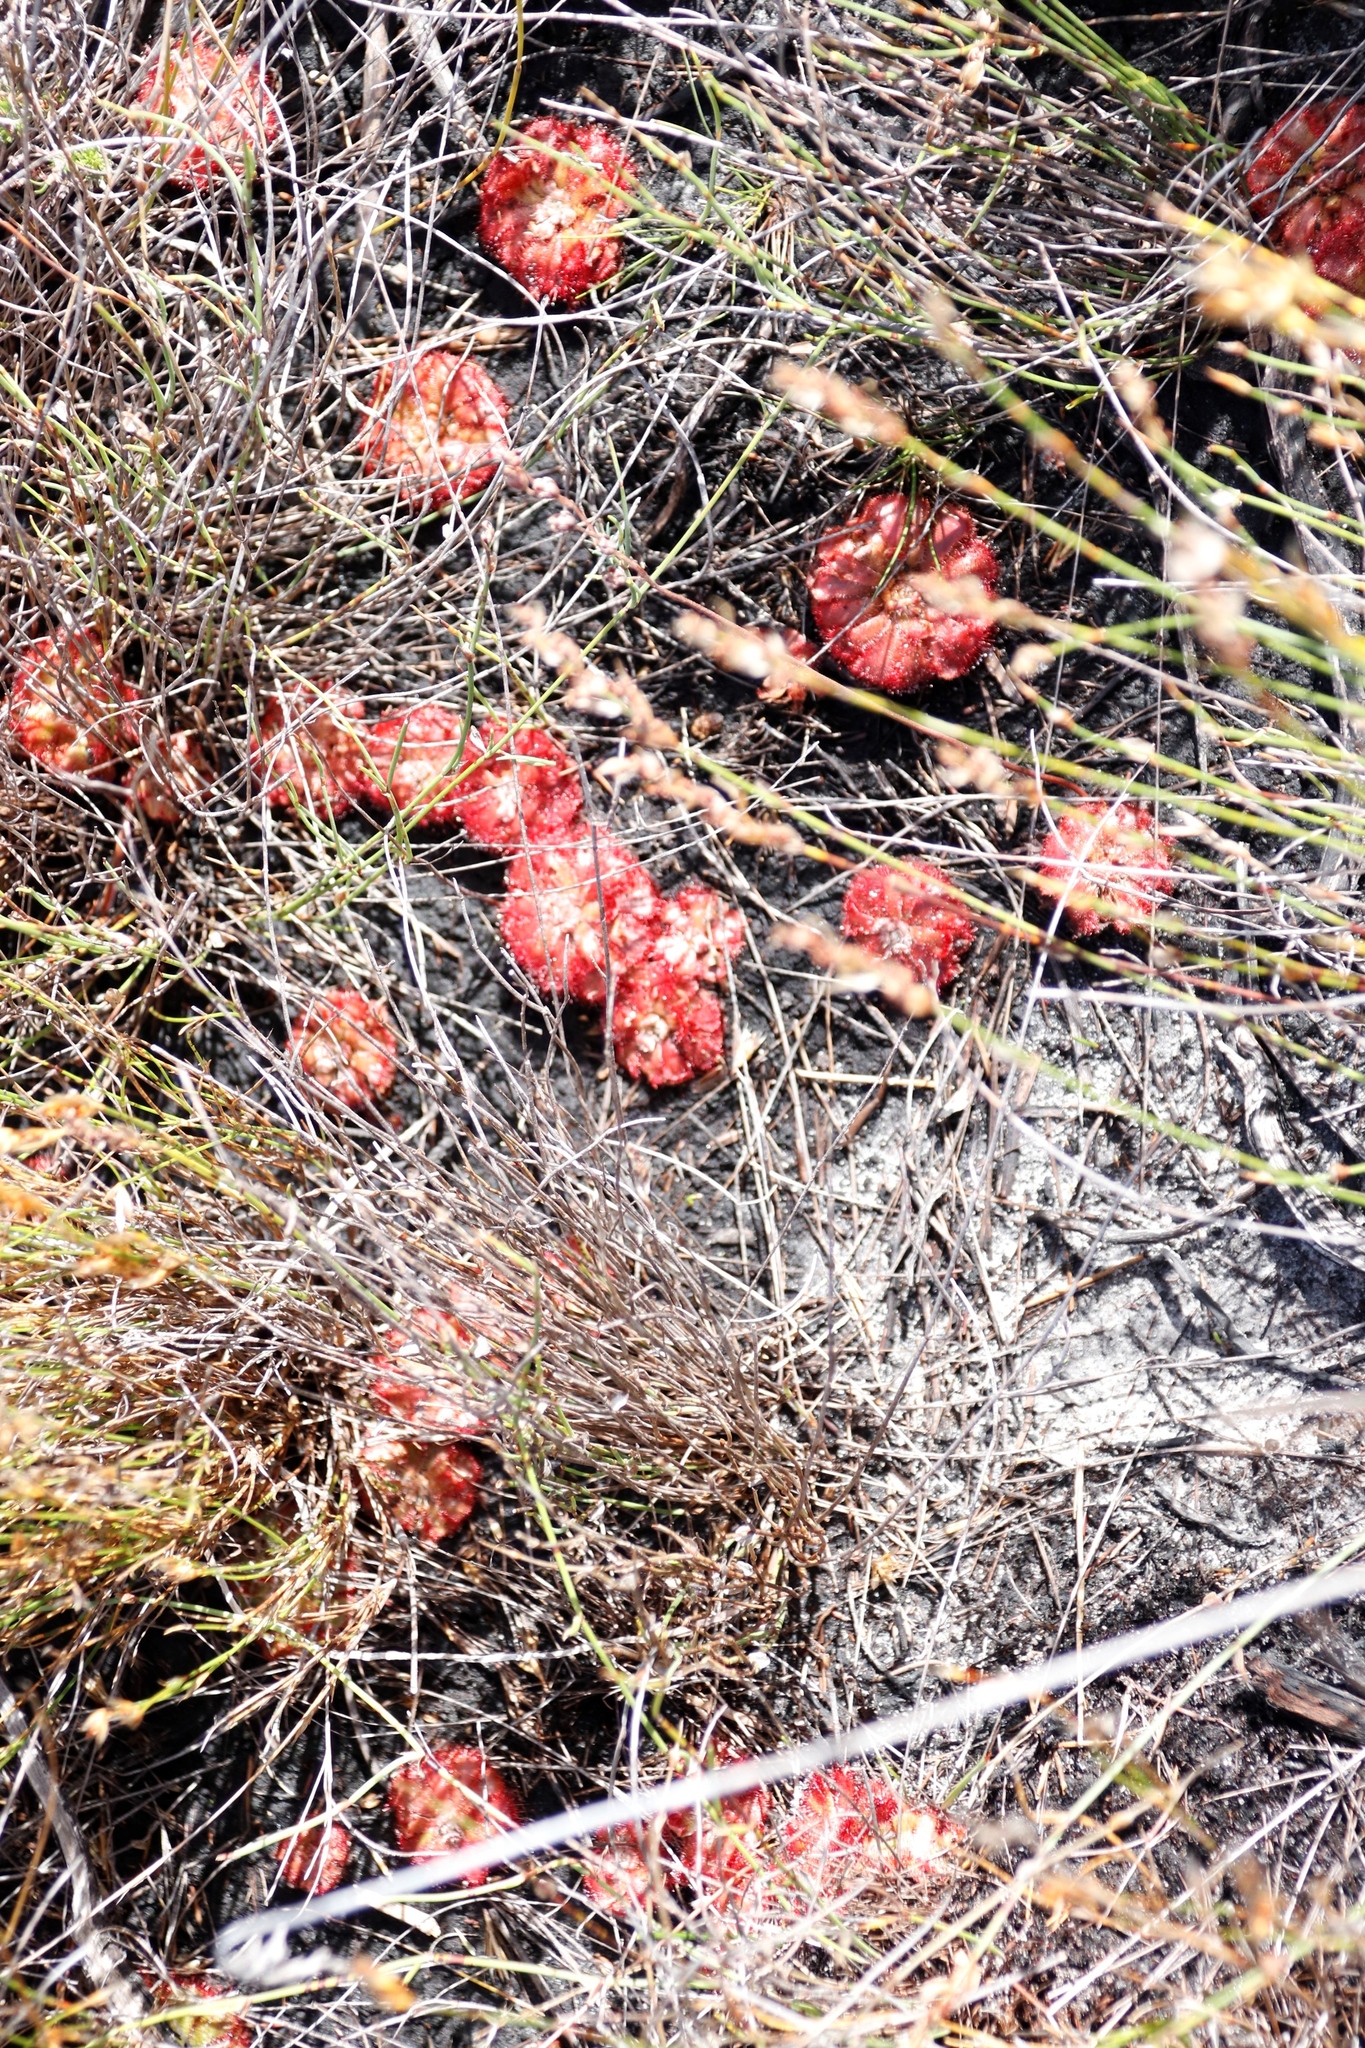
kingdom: Plantae
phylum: Tracheophyta
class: Magnoliopsida
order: Caryophyllales
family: Droseraceae
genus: Drosera
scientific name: Drosera aliciae
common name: Alice sundew
